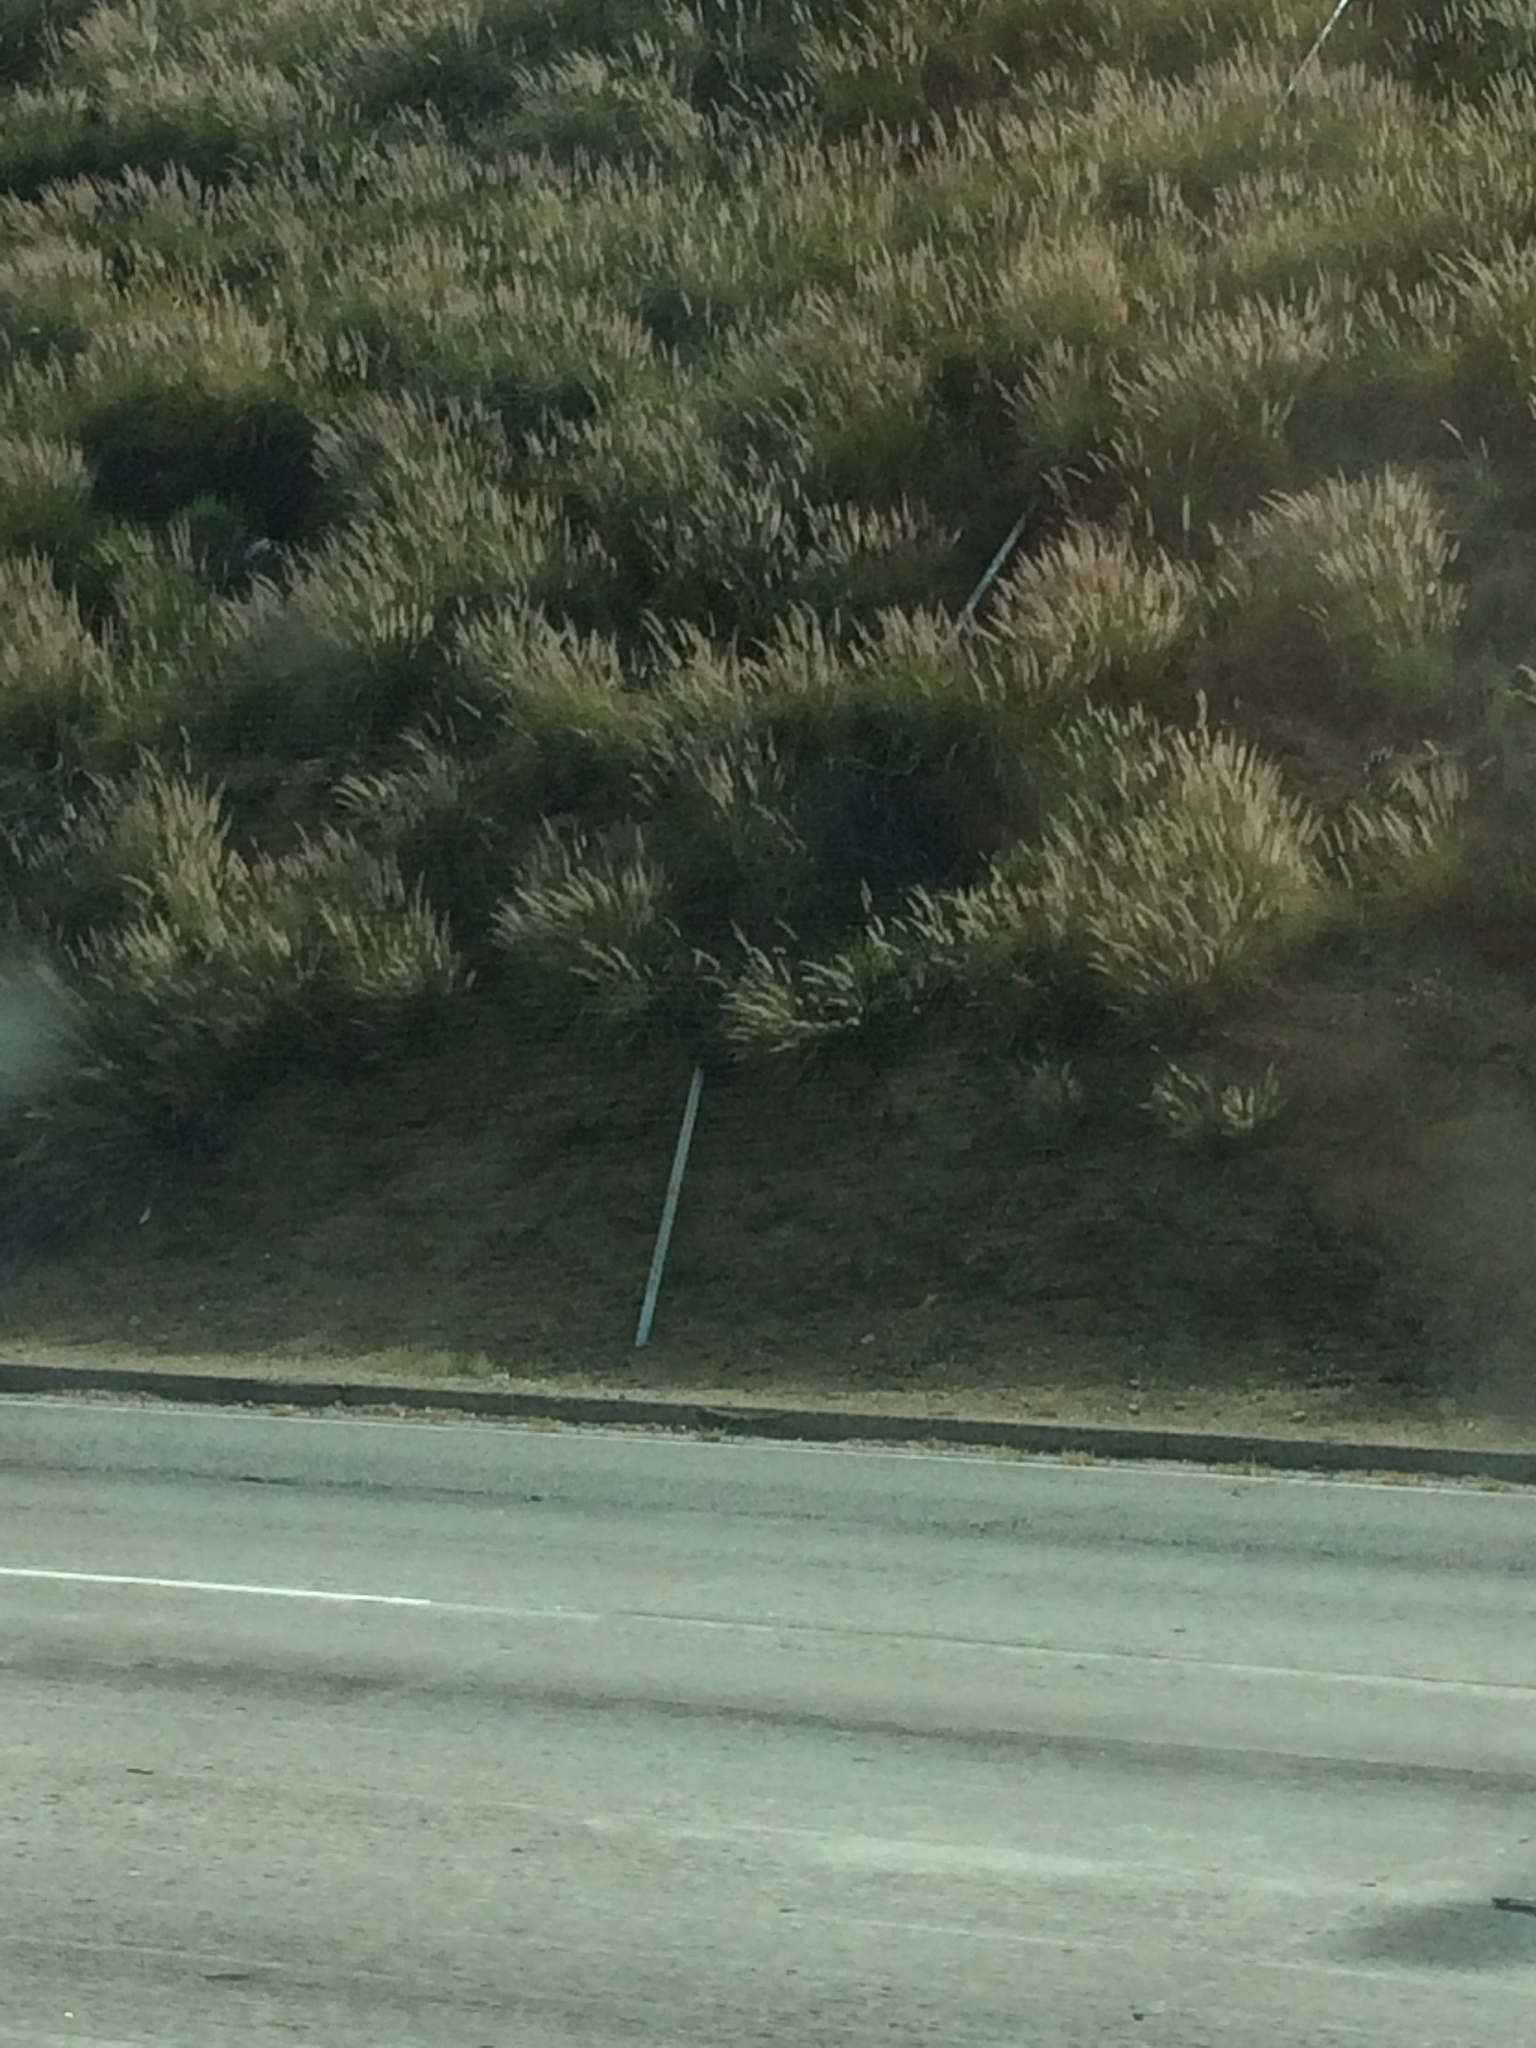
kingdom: Plantae
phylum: Tracheophyta
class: Liliopsida
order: Poales
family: Poaceae
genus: Cenchrus
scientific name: Cenchrus setaceus
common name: Crimson fountaingrass
